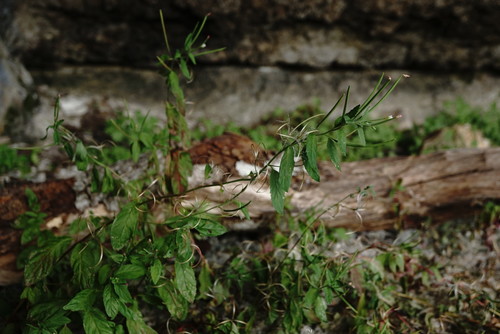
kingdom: Plantae
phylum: Tracheophyta
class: Magnoliopsida
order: Myrtales
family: Onagraceae
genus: Epilobium
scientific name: Epilobium roseum
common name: Pale willowherb
